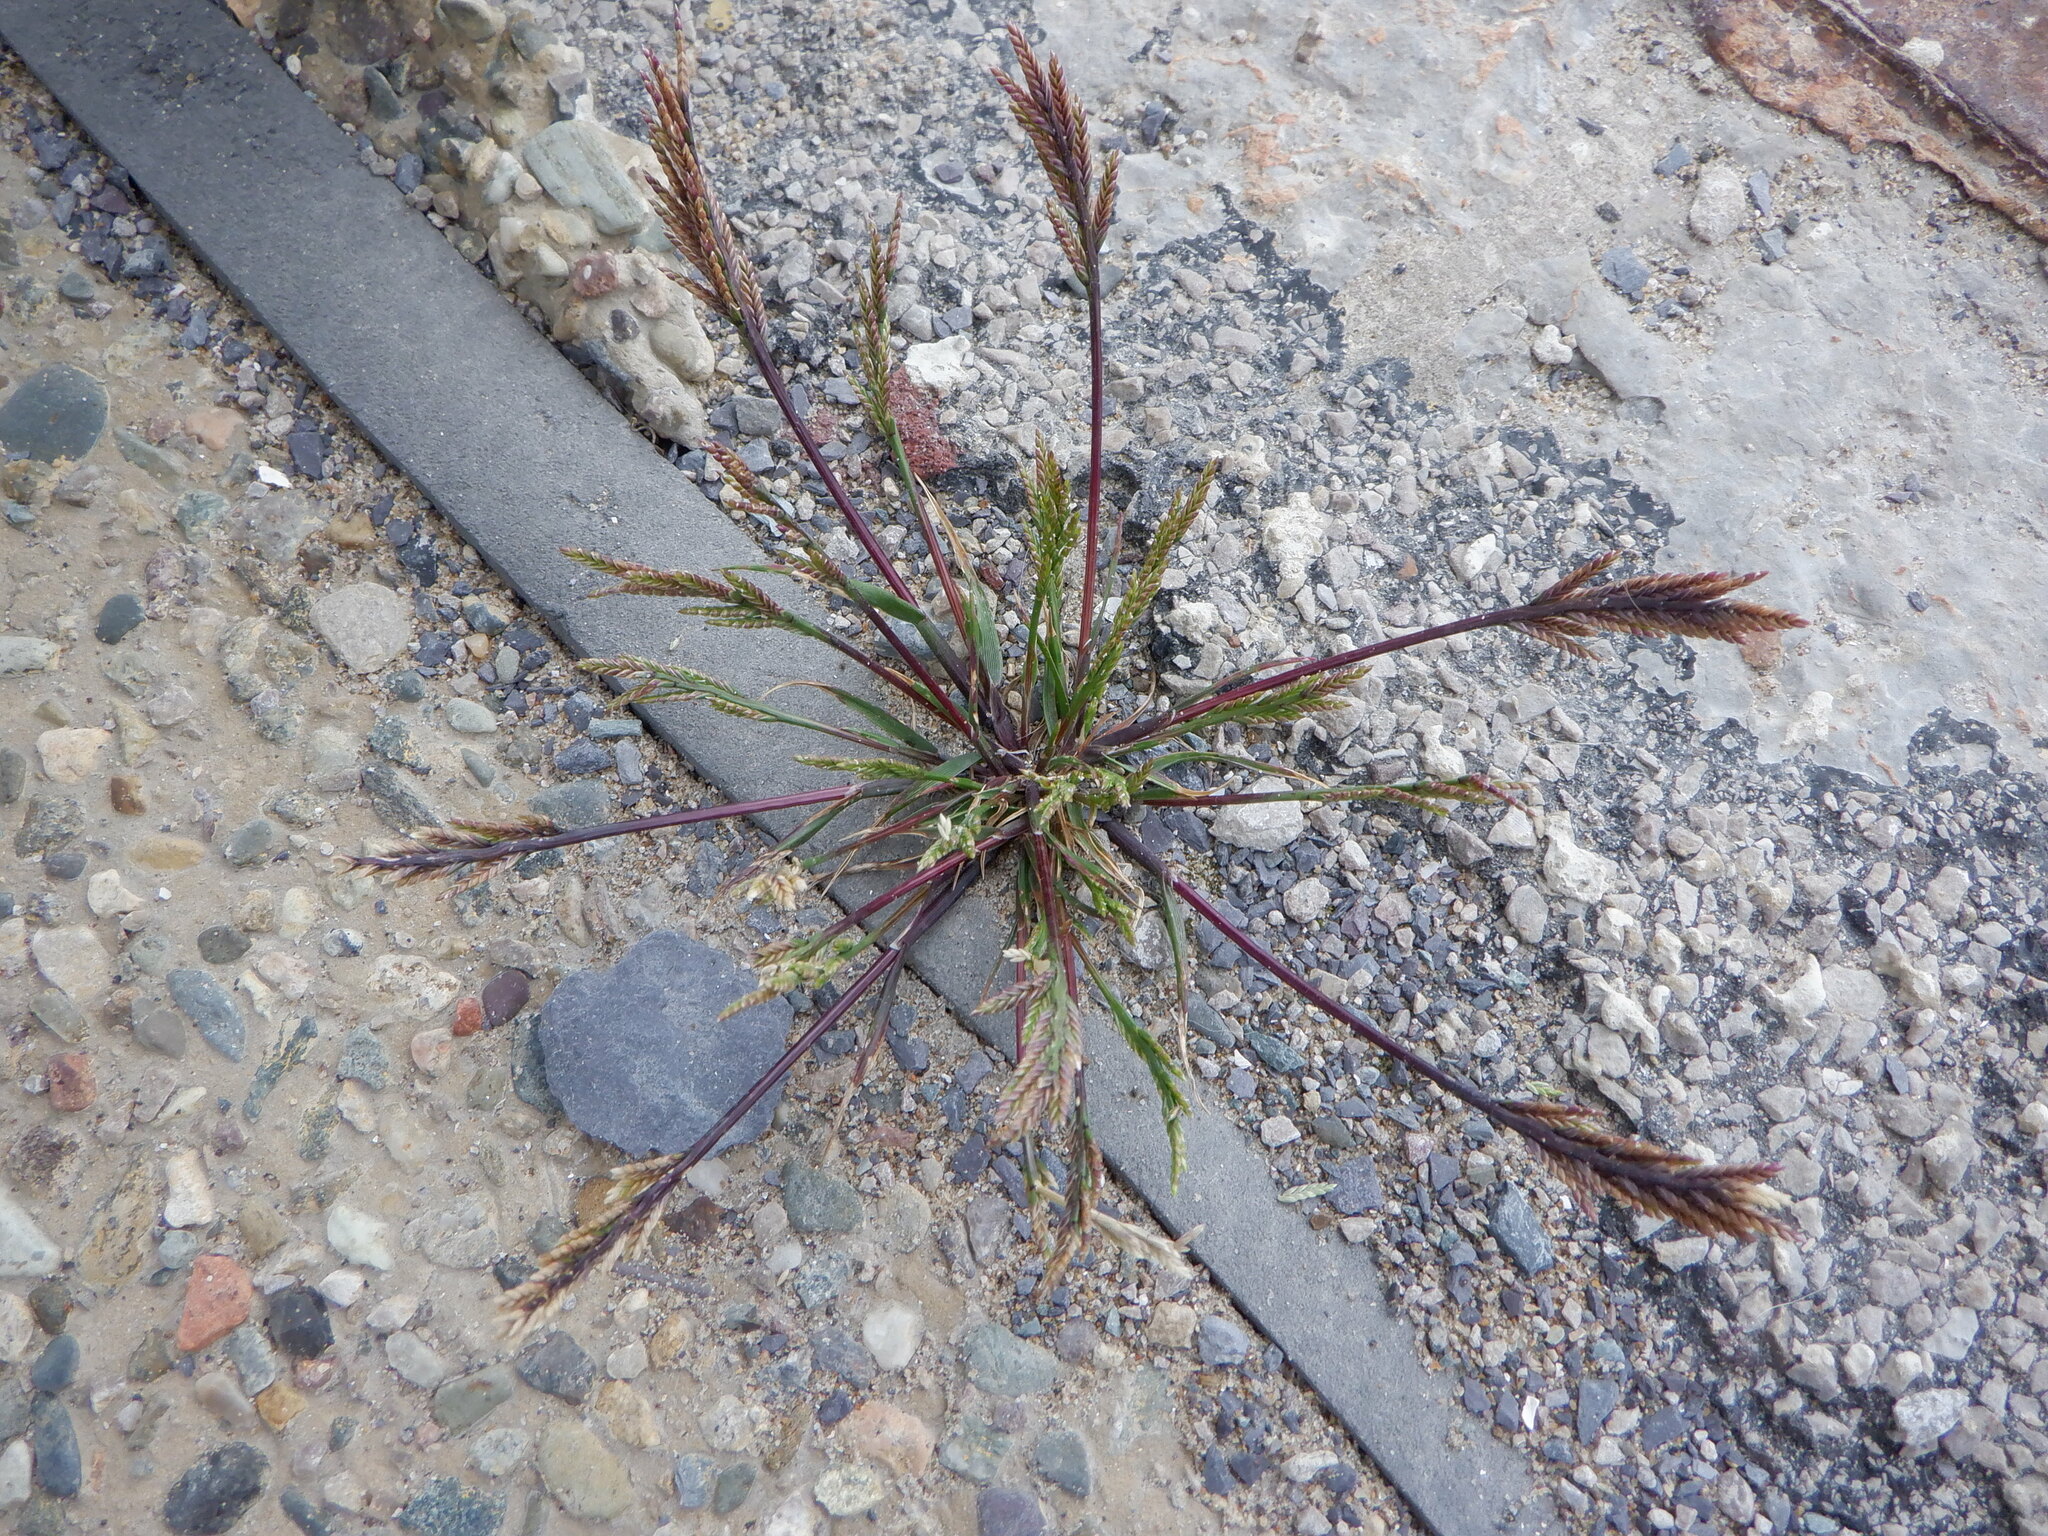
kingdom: Plantae
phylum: Tracheophyta
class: Liliopsida
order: Poales
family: Poaceae
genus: Catapodium
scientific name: Catapodium rigidum
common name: Fern-grass
